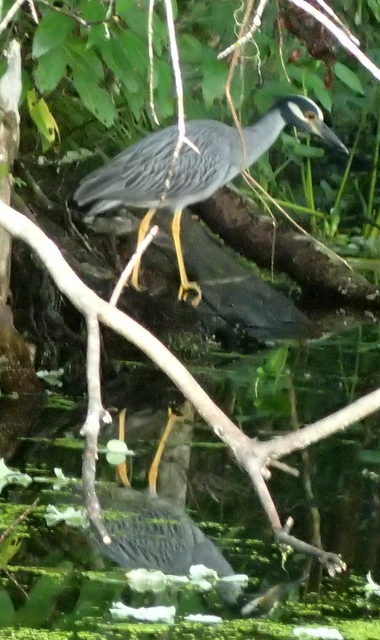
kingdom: Animalia
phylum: Chordata
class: Aves
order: Pelecaniformes
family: Ardeidae
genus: Nyctanassa
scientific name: Nyctanassa violacea
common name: Yellow-crowned night heron
